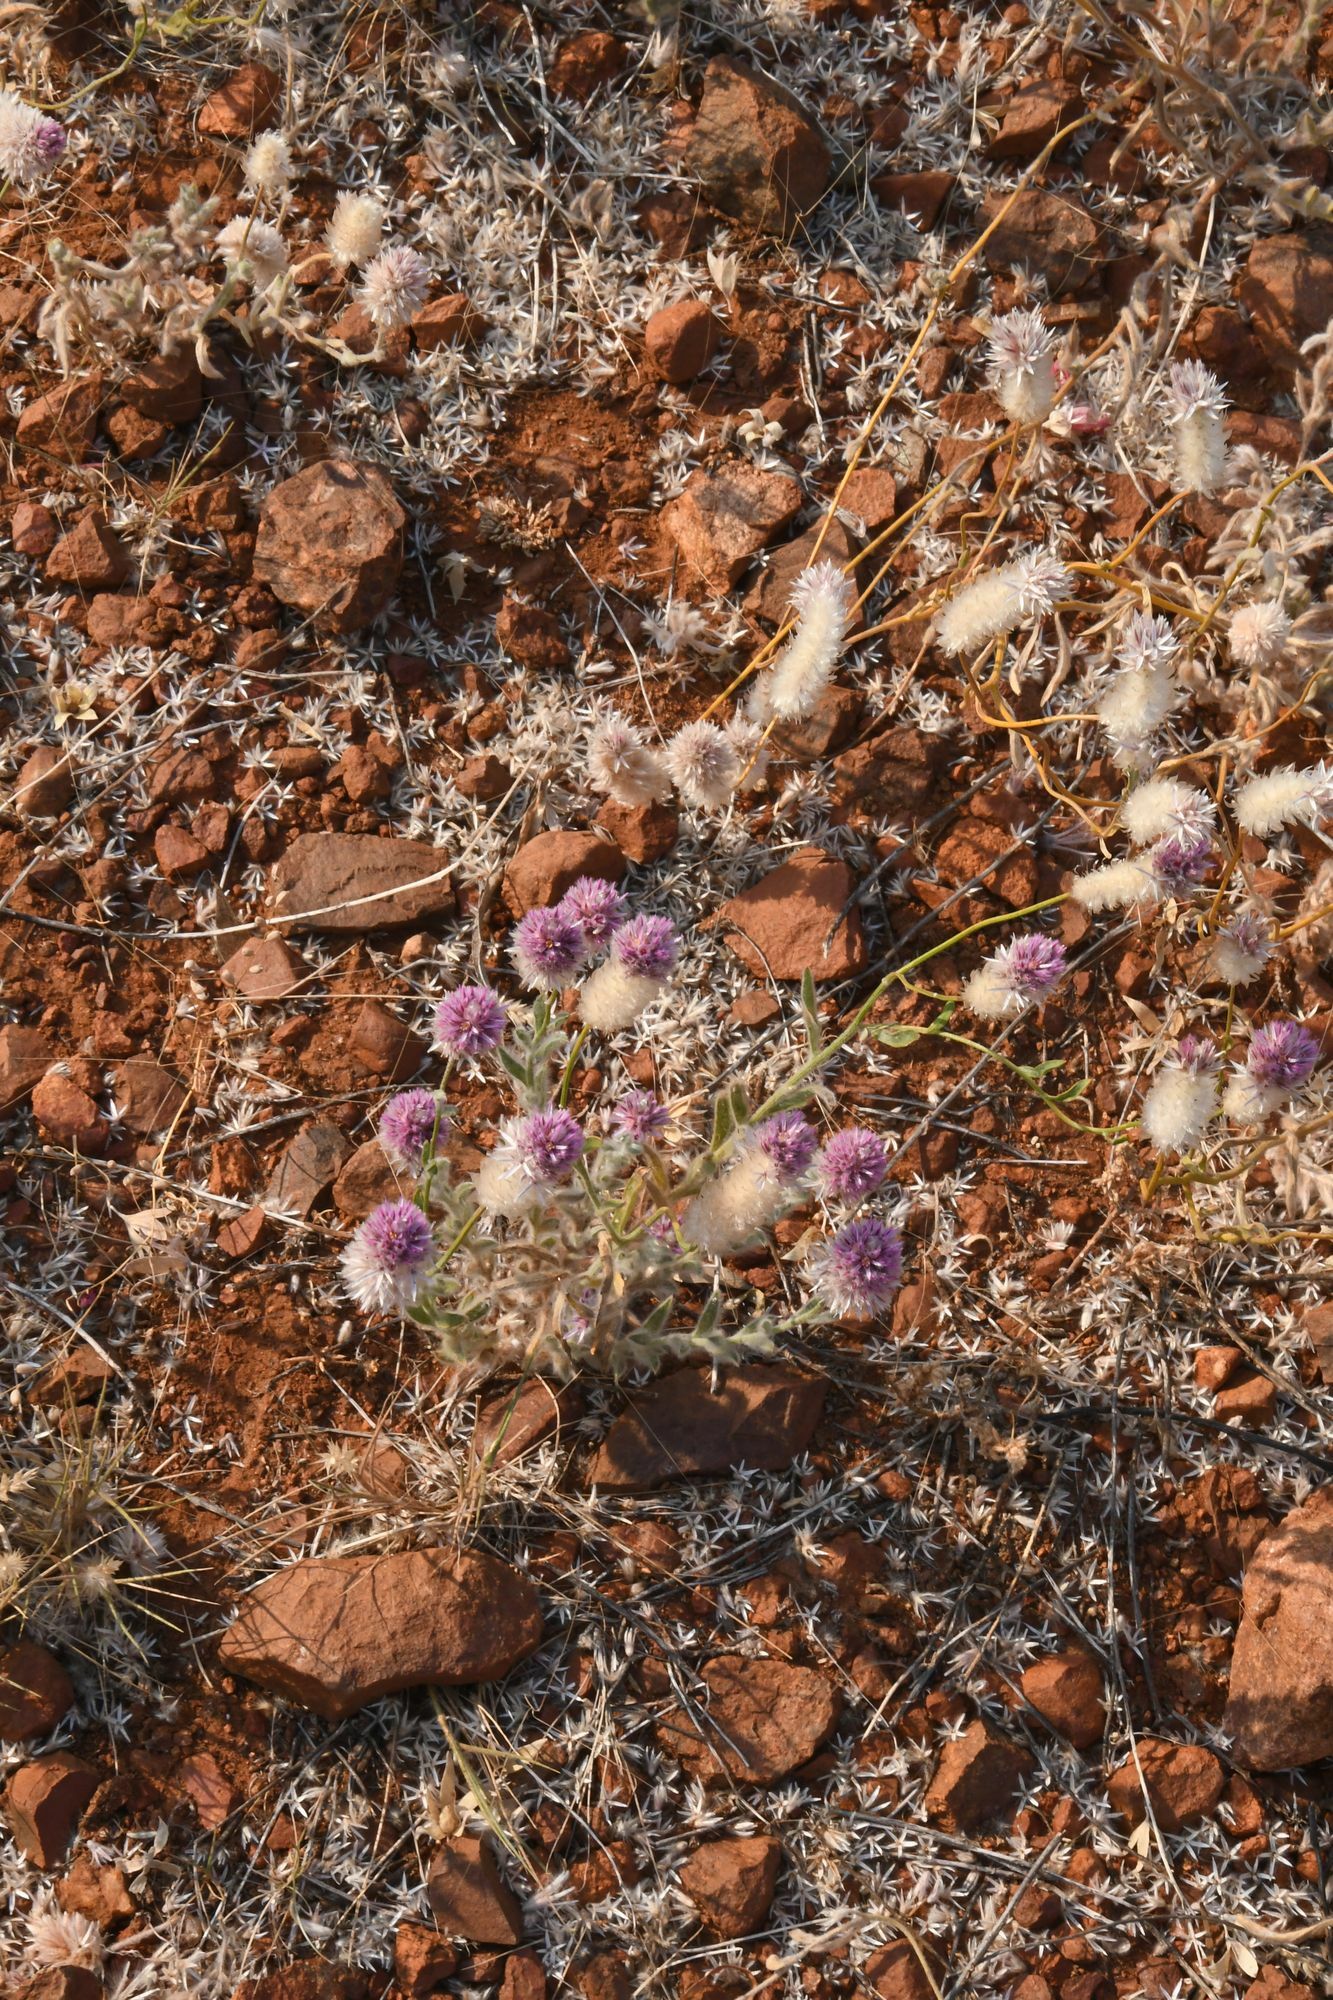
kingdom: Plantae
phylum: Tracheophyta
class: Magnoliopsida
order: Caryophyllales
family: Amaranthaceae
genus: Ptilotus
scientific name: Ptilotus helipteroides
